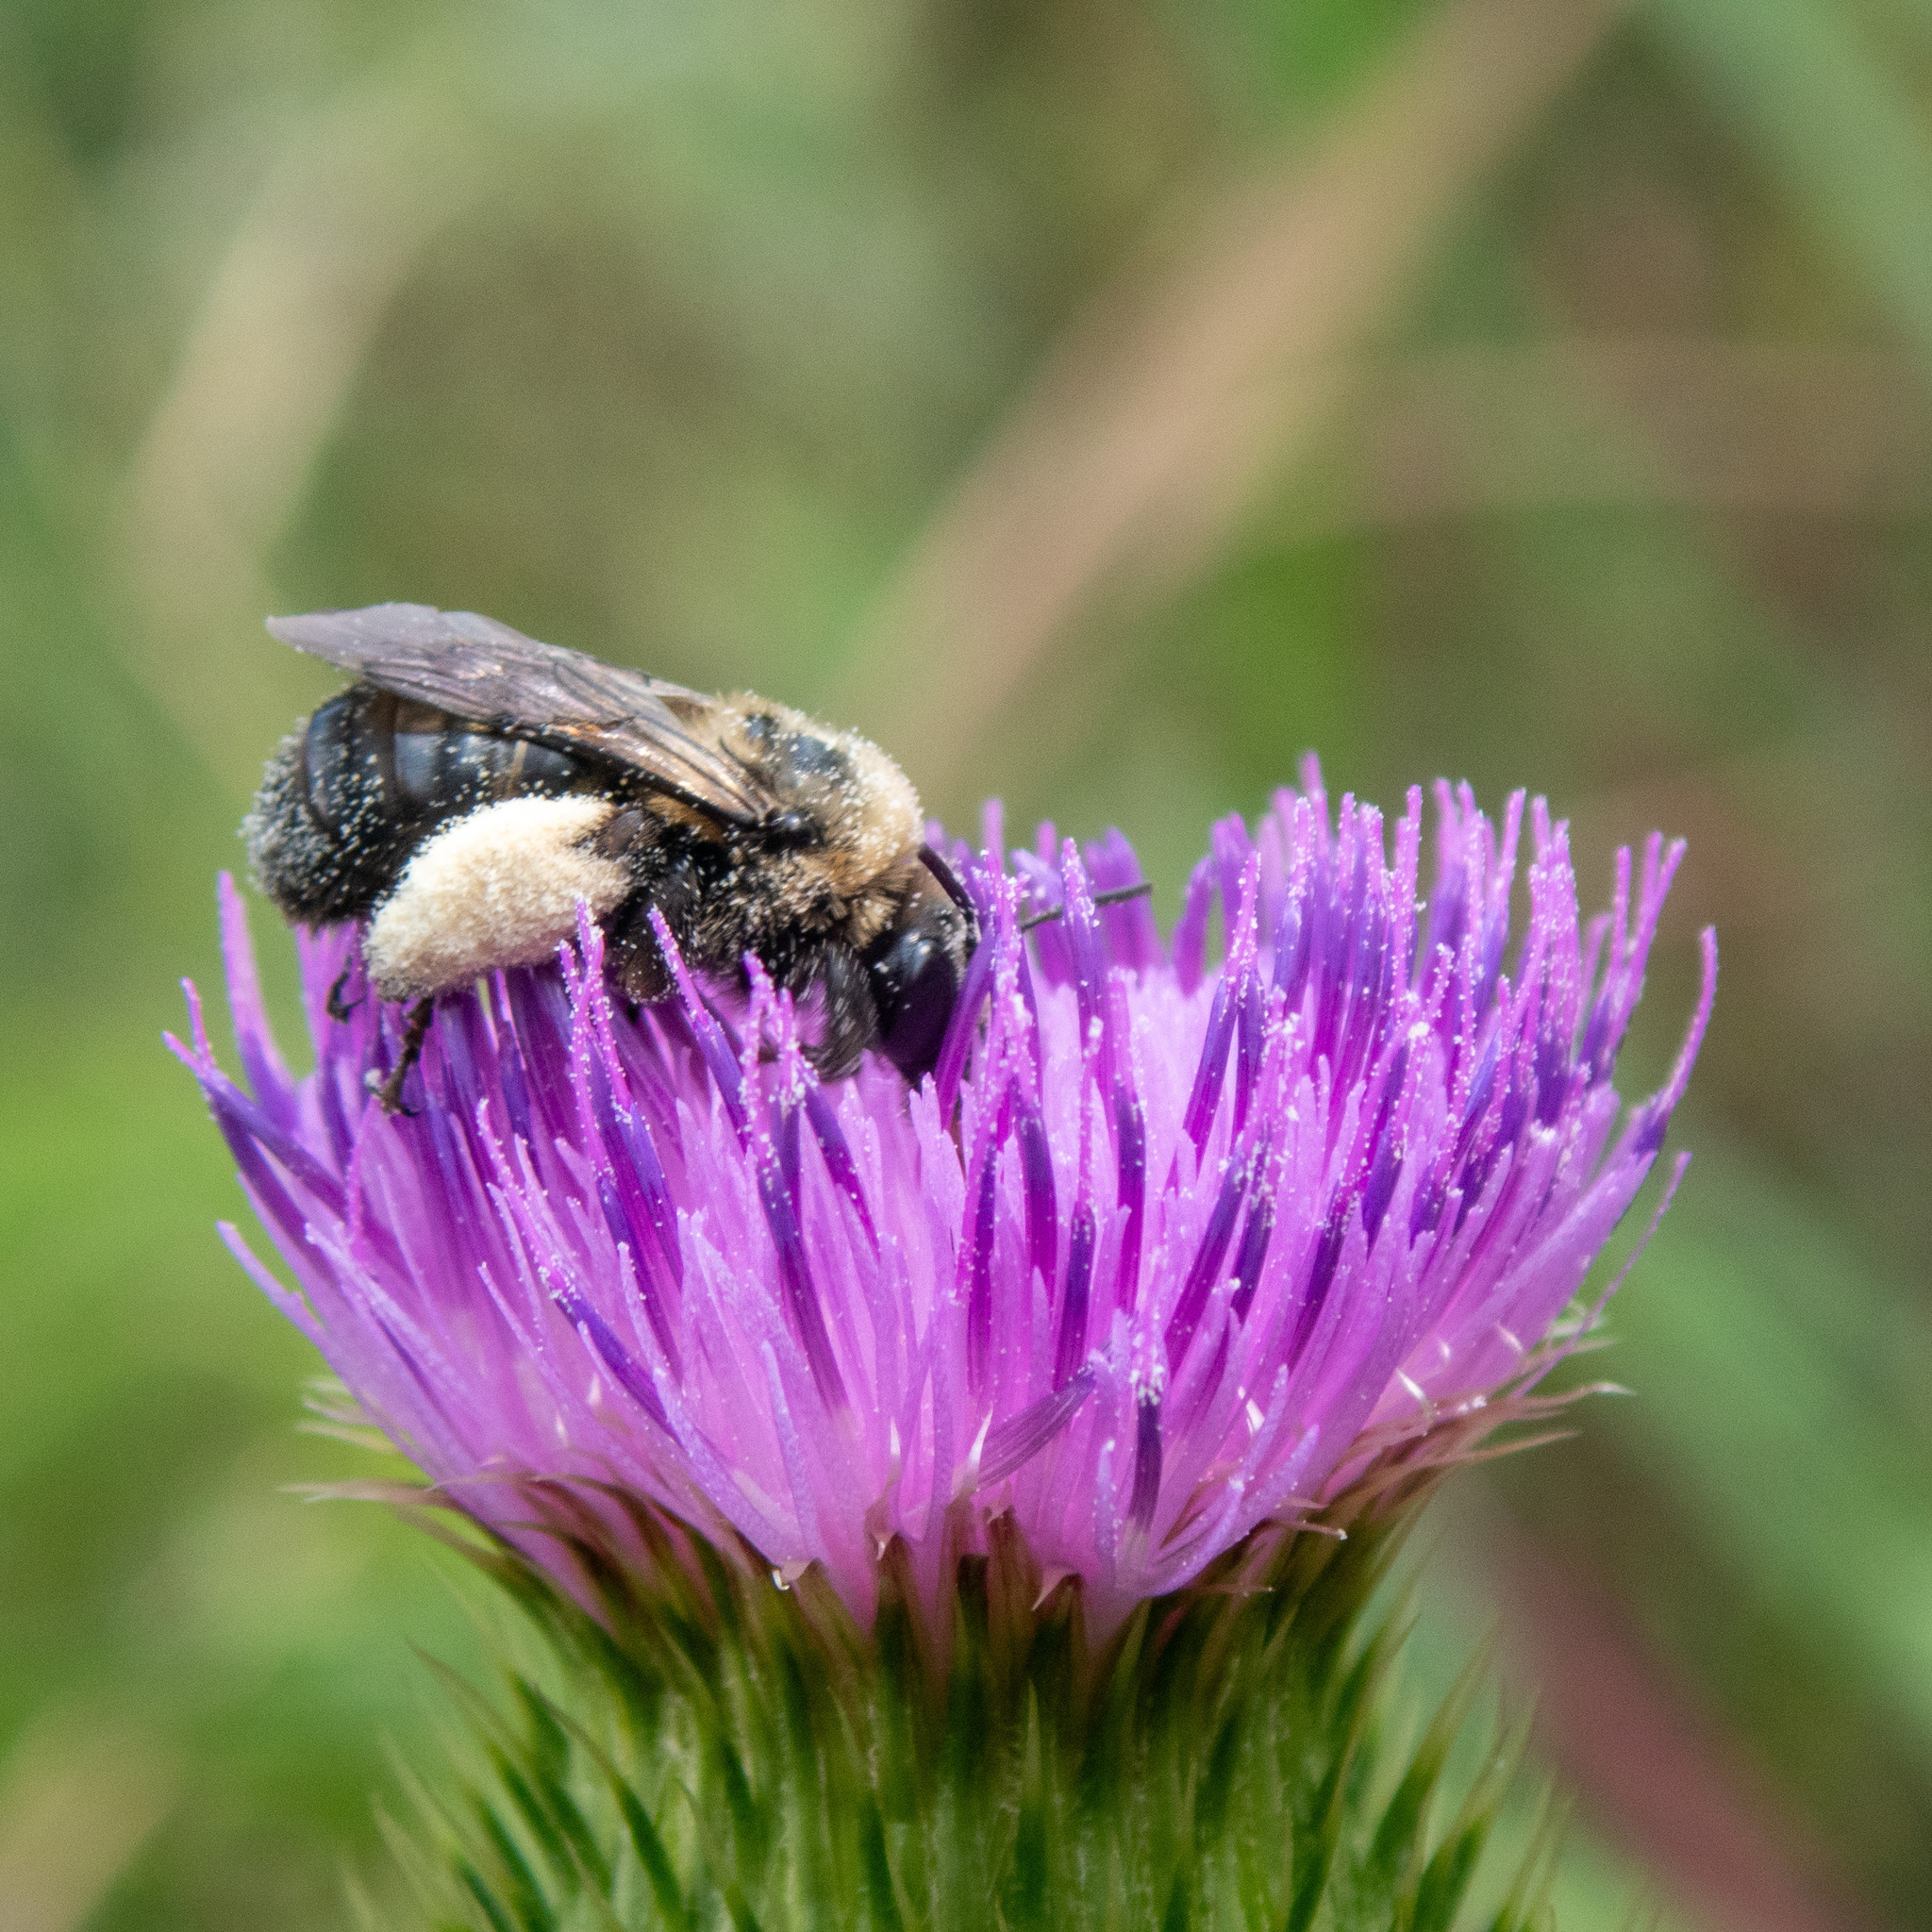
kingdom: Animalia
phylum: Arthropoda
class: Insecta
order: Hymenoptera
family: Apidae
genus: Melissodes
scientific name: Melissodes desponsus
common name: Thistle long-horned bee
